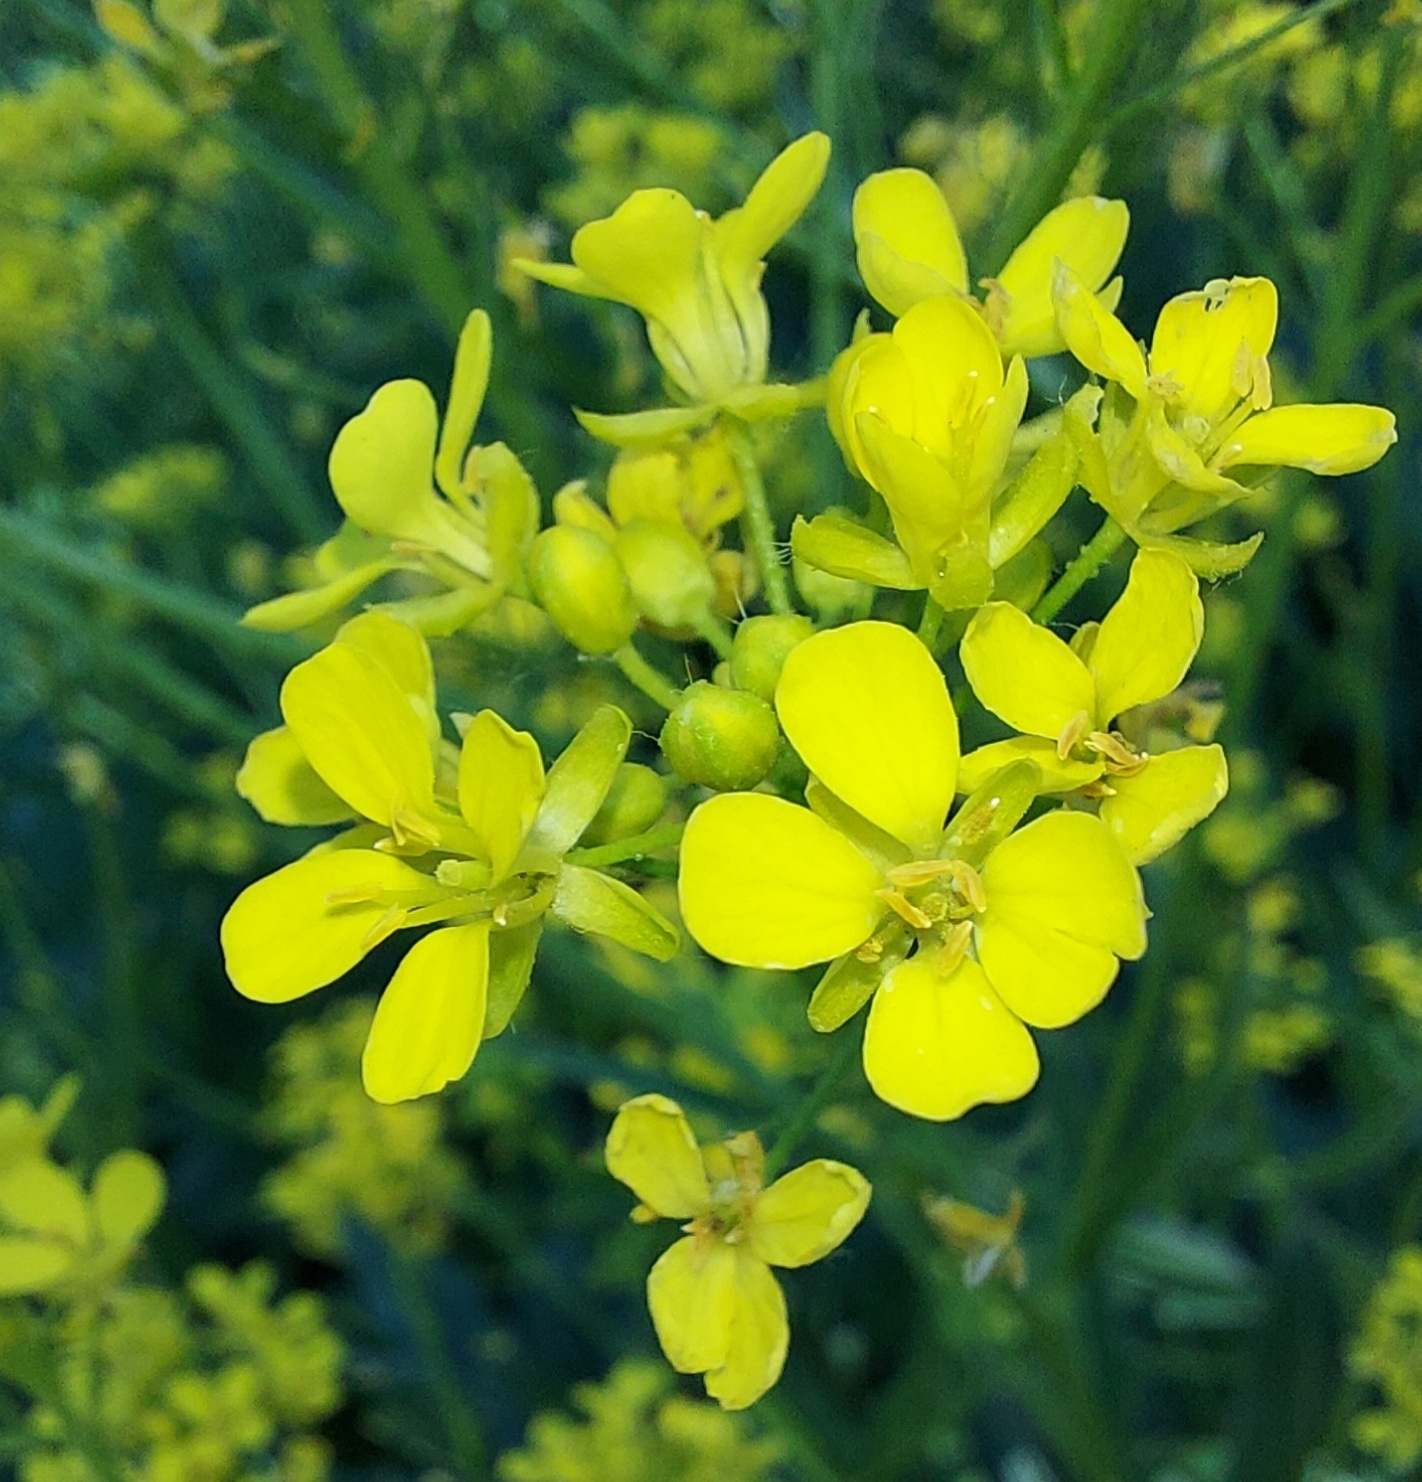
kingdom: Plantae
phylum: Tracheophyta
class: Magnoliopsida
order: Brassicales
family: Brassicaceae
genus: Bunias
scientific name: Bunias orientalis
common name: Warty-cabbage
